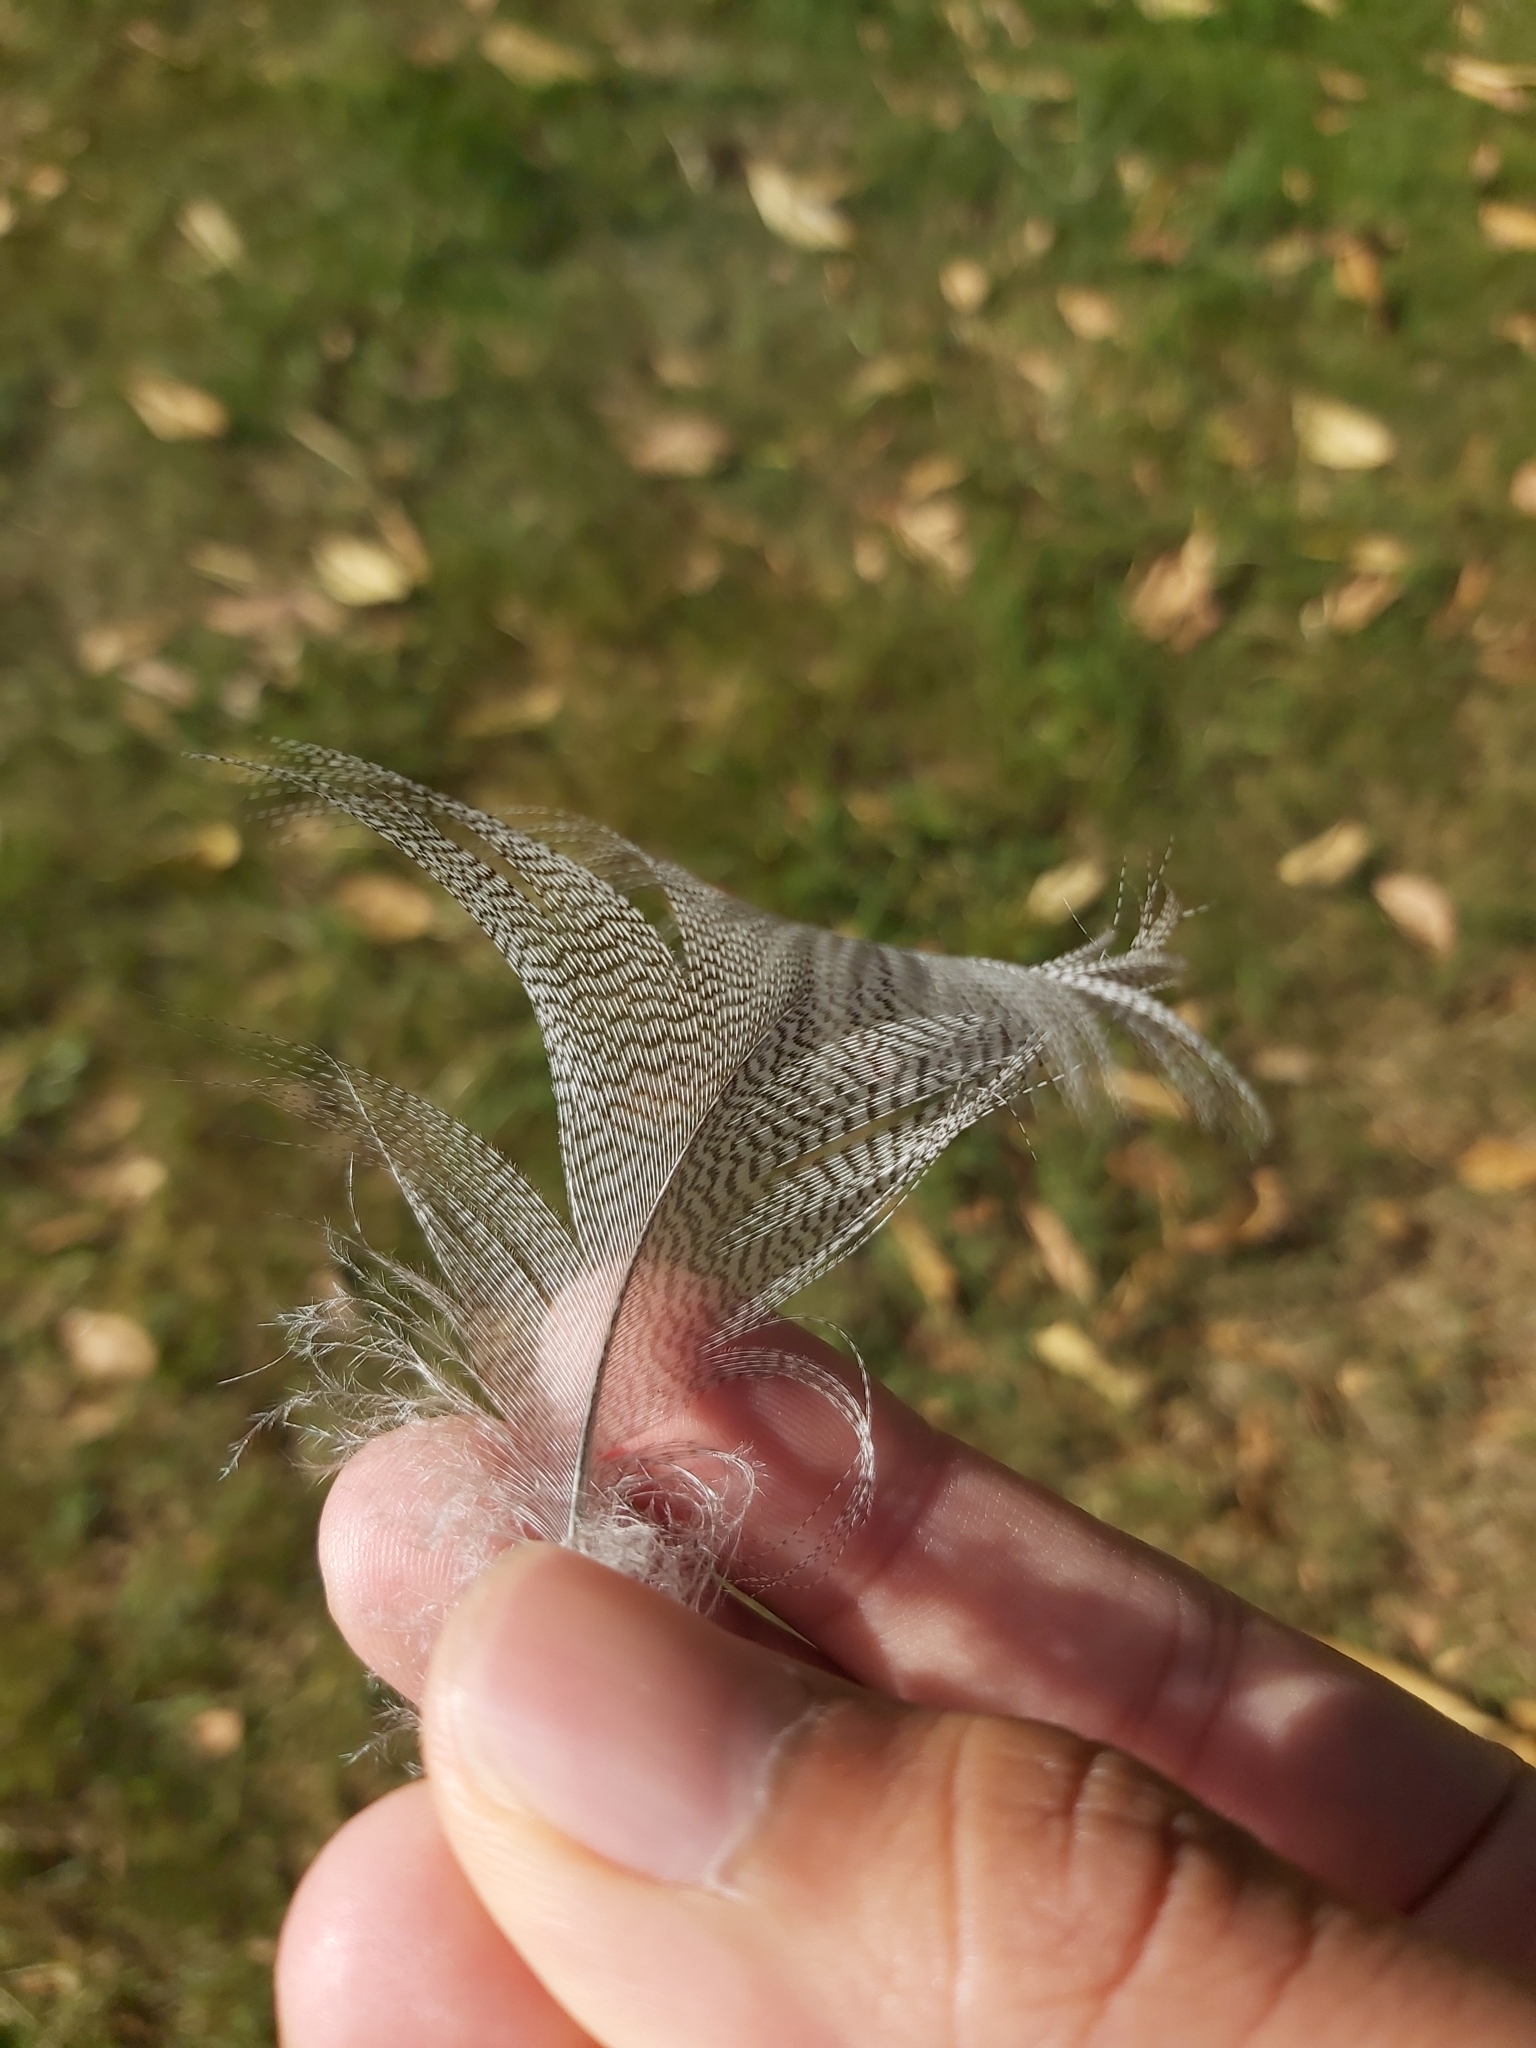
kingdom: Animalia
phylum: Chordata
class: Aves
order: Anseriformes
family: Anatidae
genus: Chenonetta
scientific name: Chenonetta jubata
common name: Maned duck
